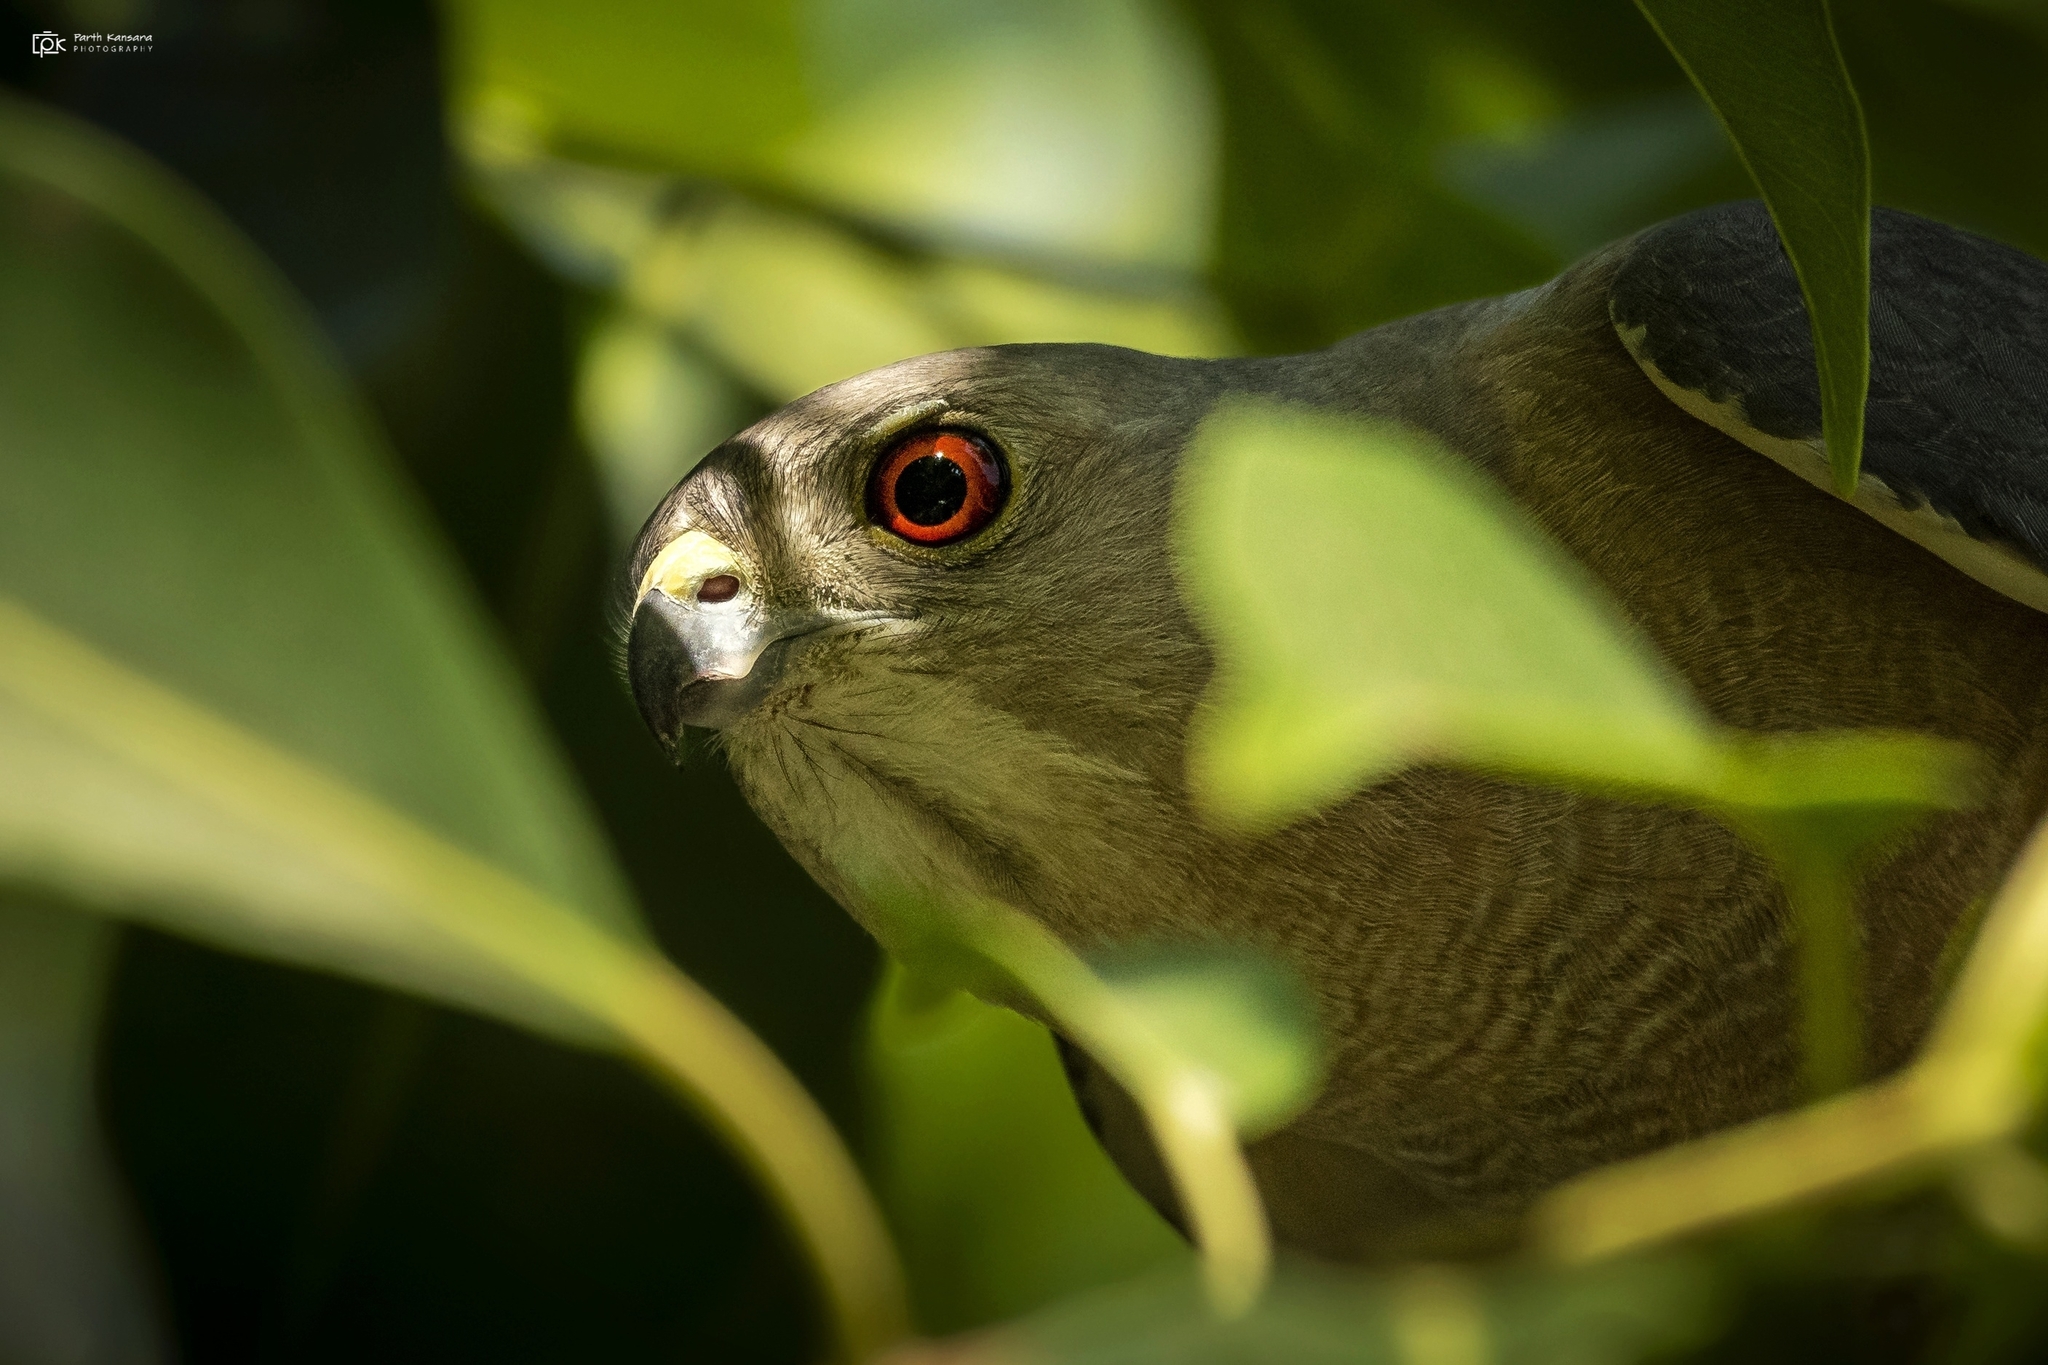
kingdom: Animalia
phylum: Chordata
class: Aves
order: Accipitriformes
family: Accipitridae
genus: Accipiter
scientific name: Accipiter badius
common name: Shikra
